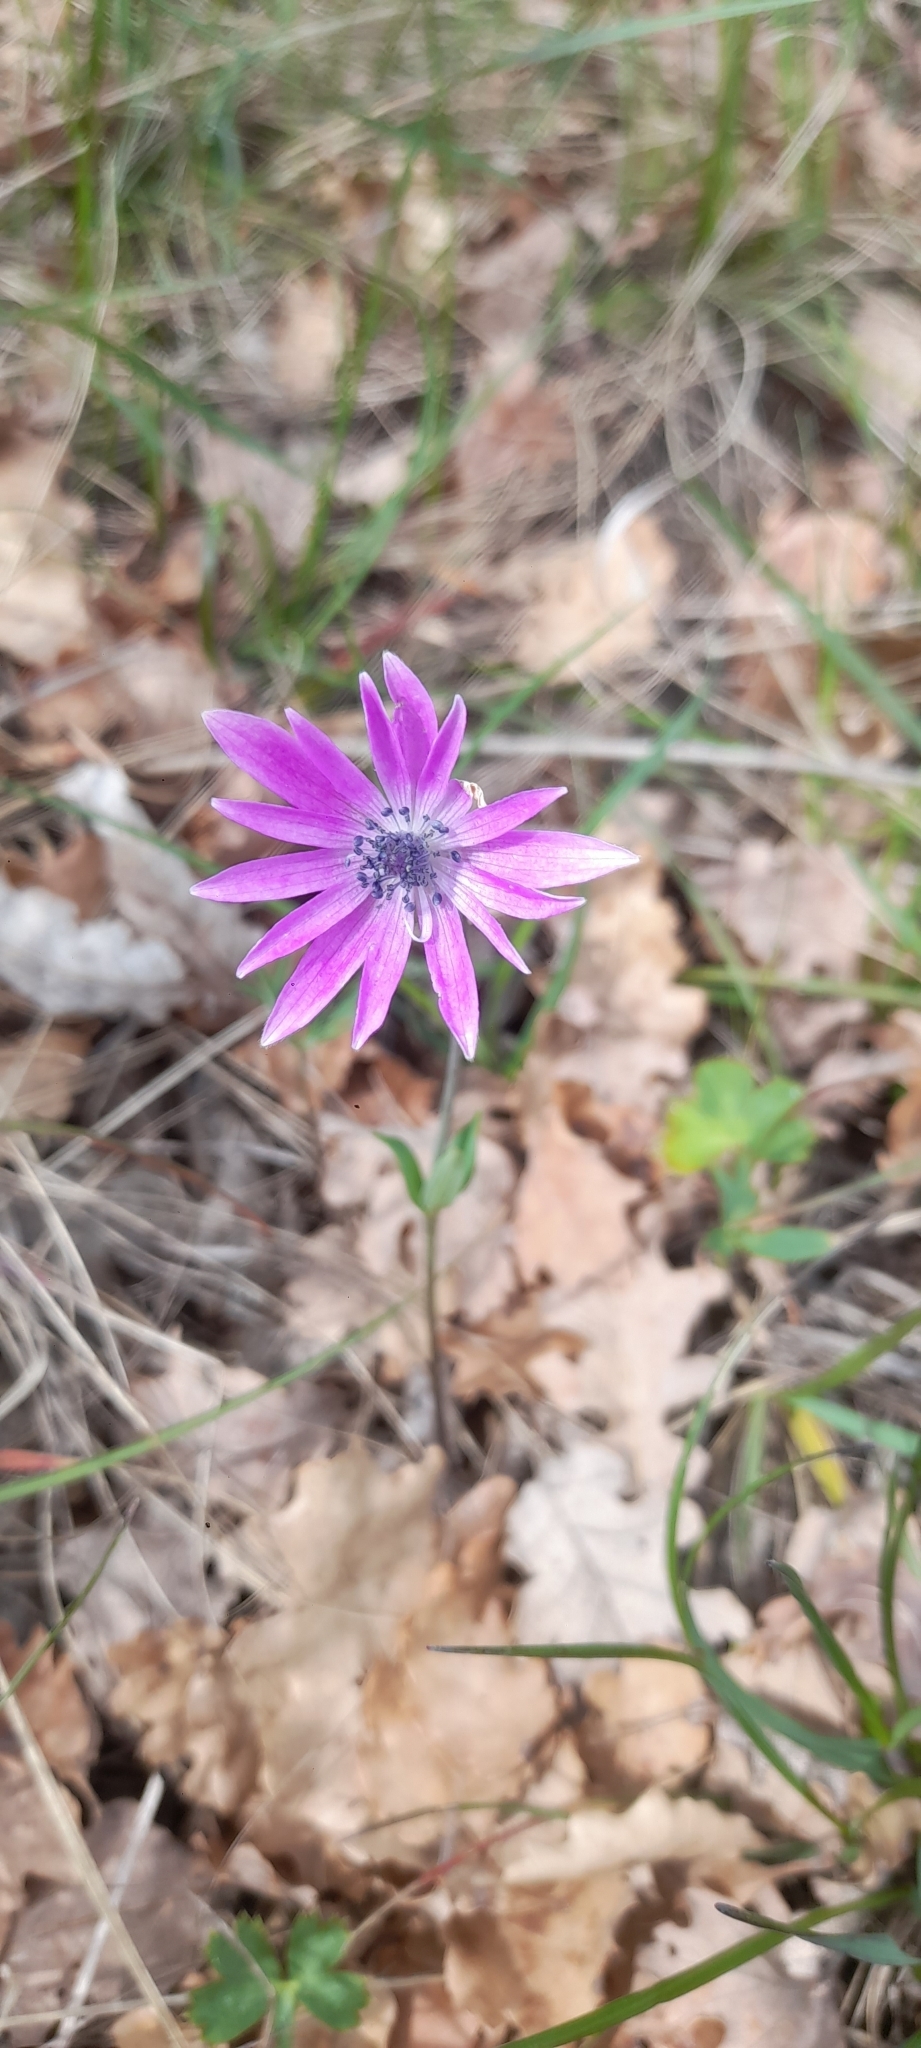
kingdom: Plantae
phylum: Tracheophyta
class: Magnoliopsida
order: Ranunculales
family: Ranunculaceae
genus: Anemone
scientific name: Anemone hortensis
